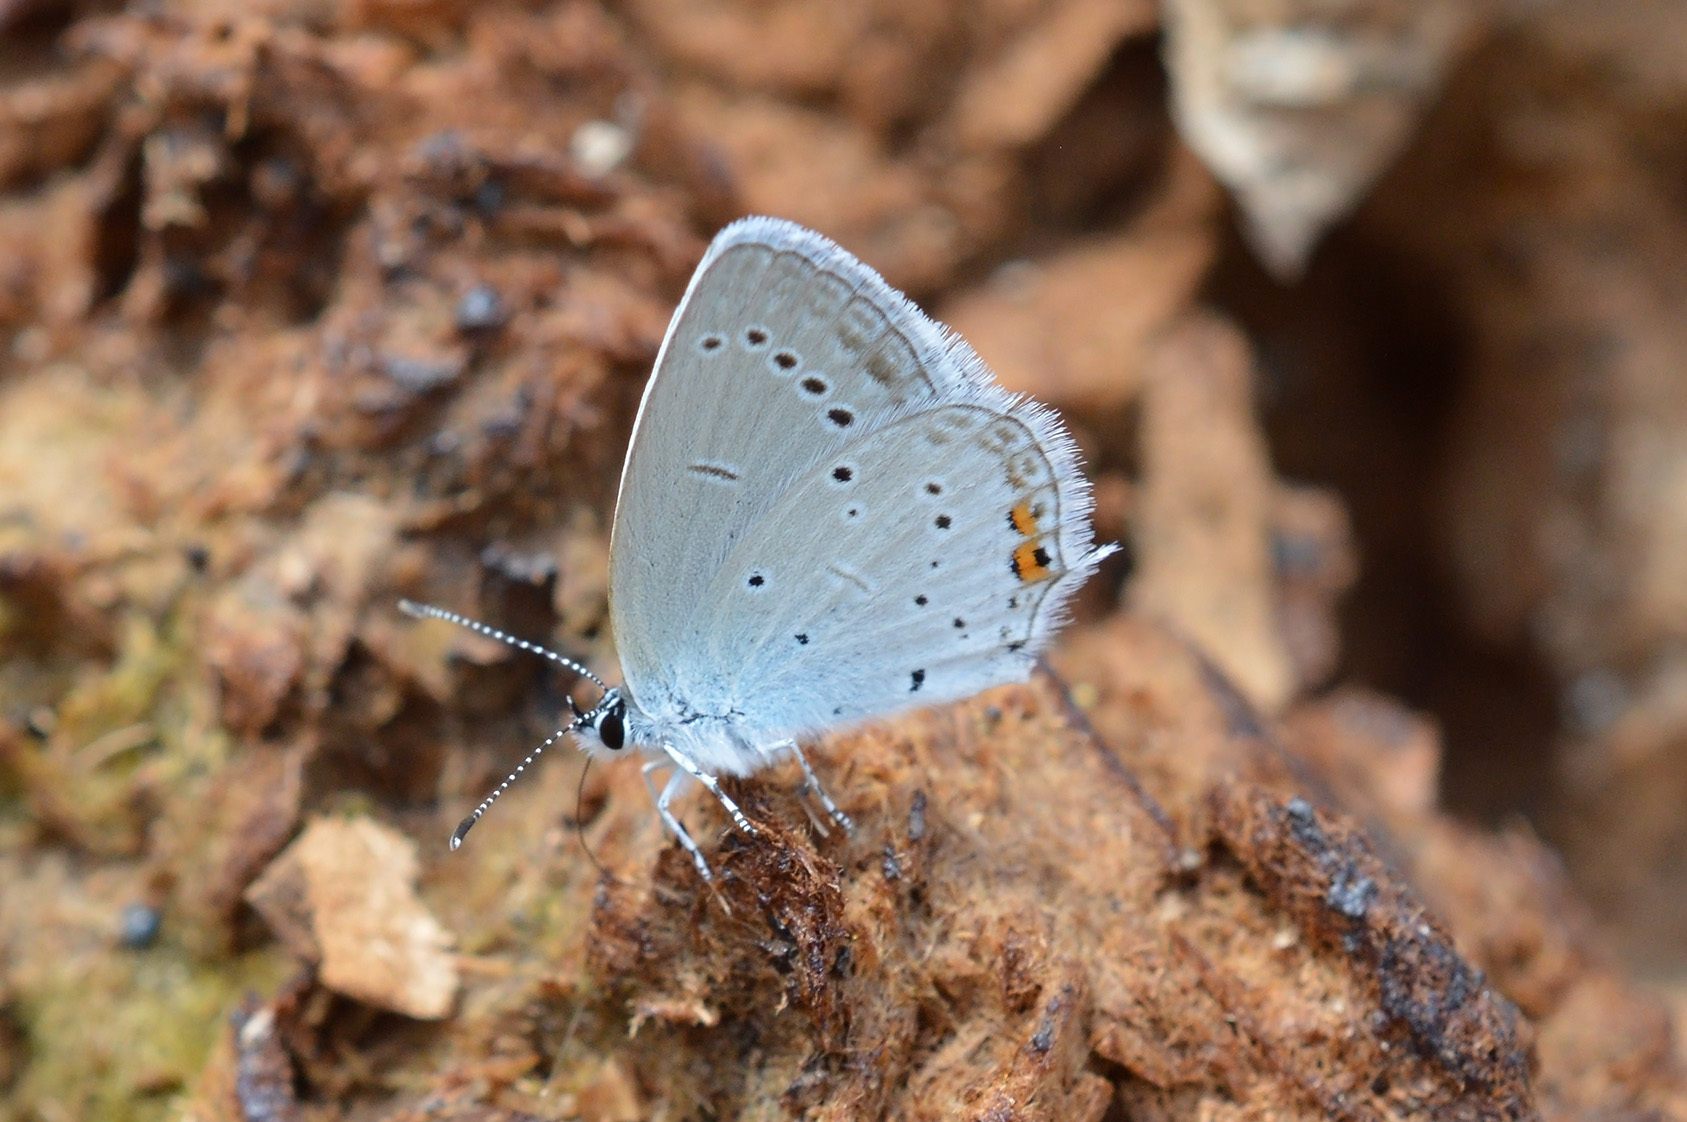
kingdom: Animalia
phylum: Arthropoda
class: Insecta
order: Lepidoptera
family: Lycaenidae
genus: Elkalyce
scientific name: Elkalyce argiades
